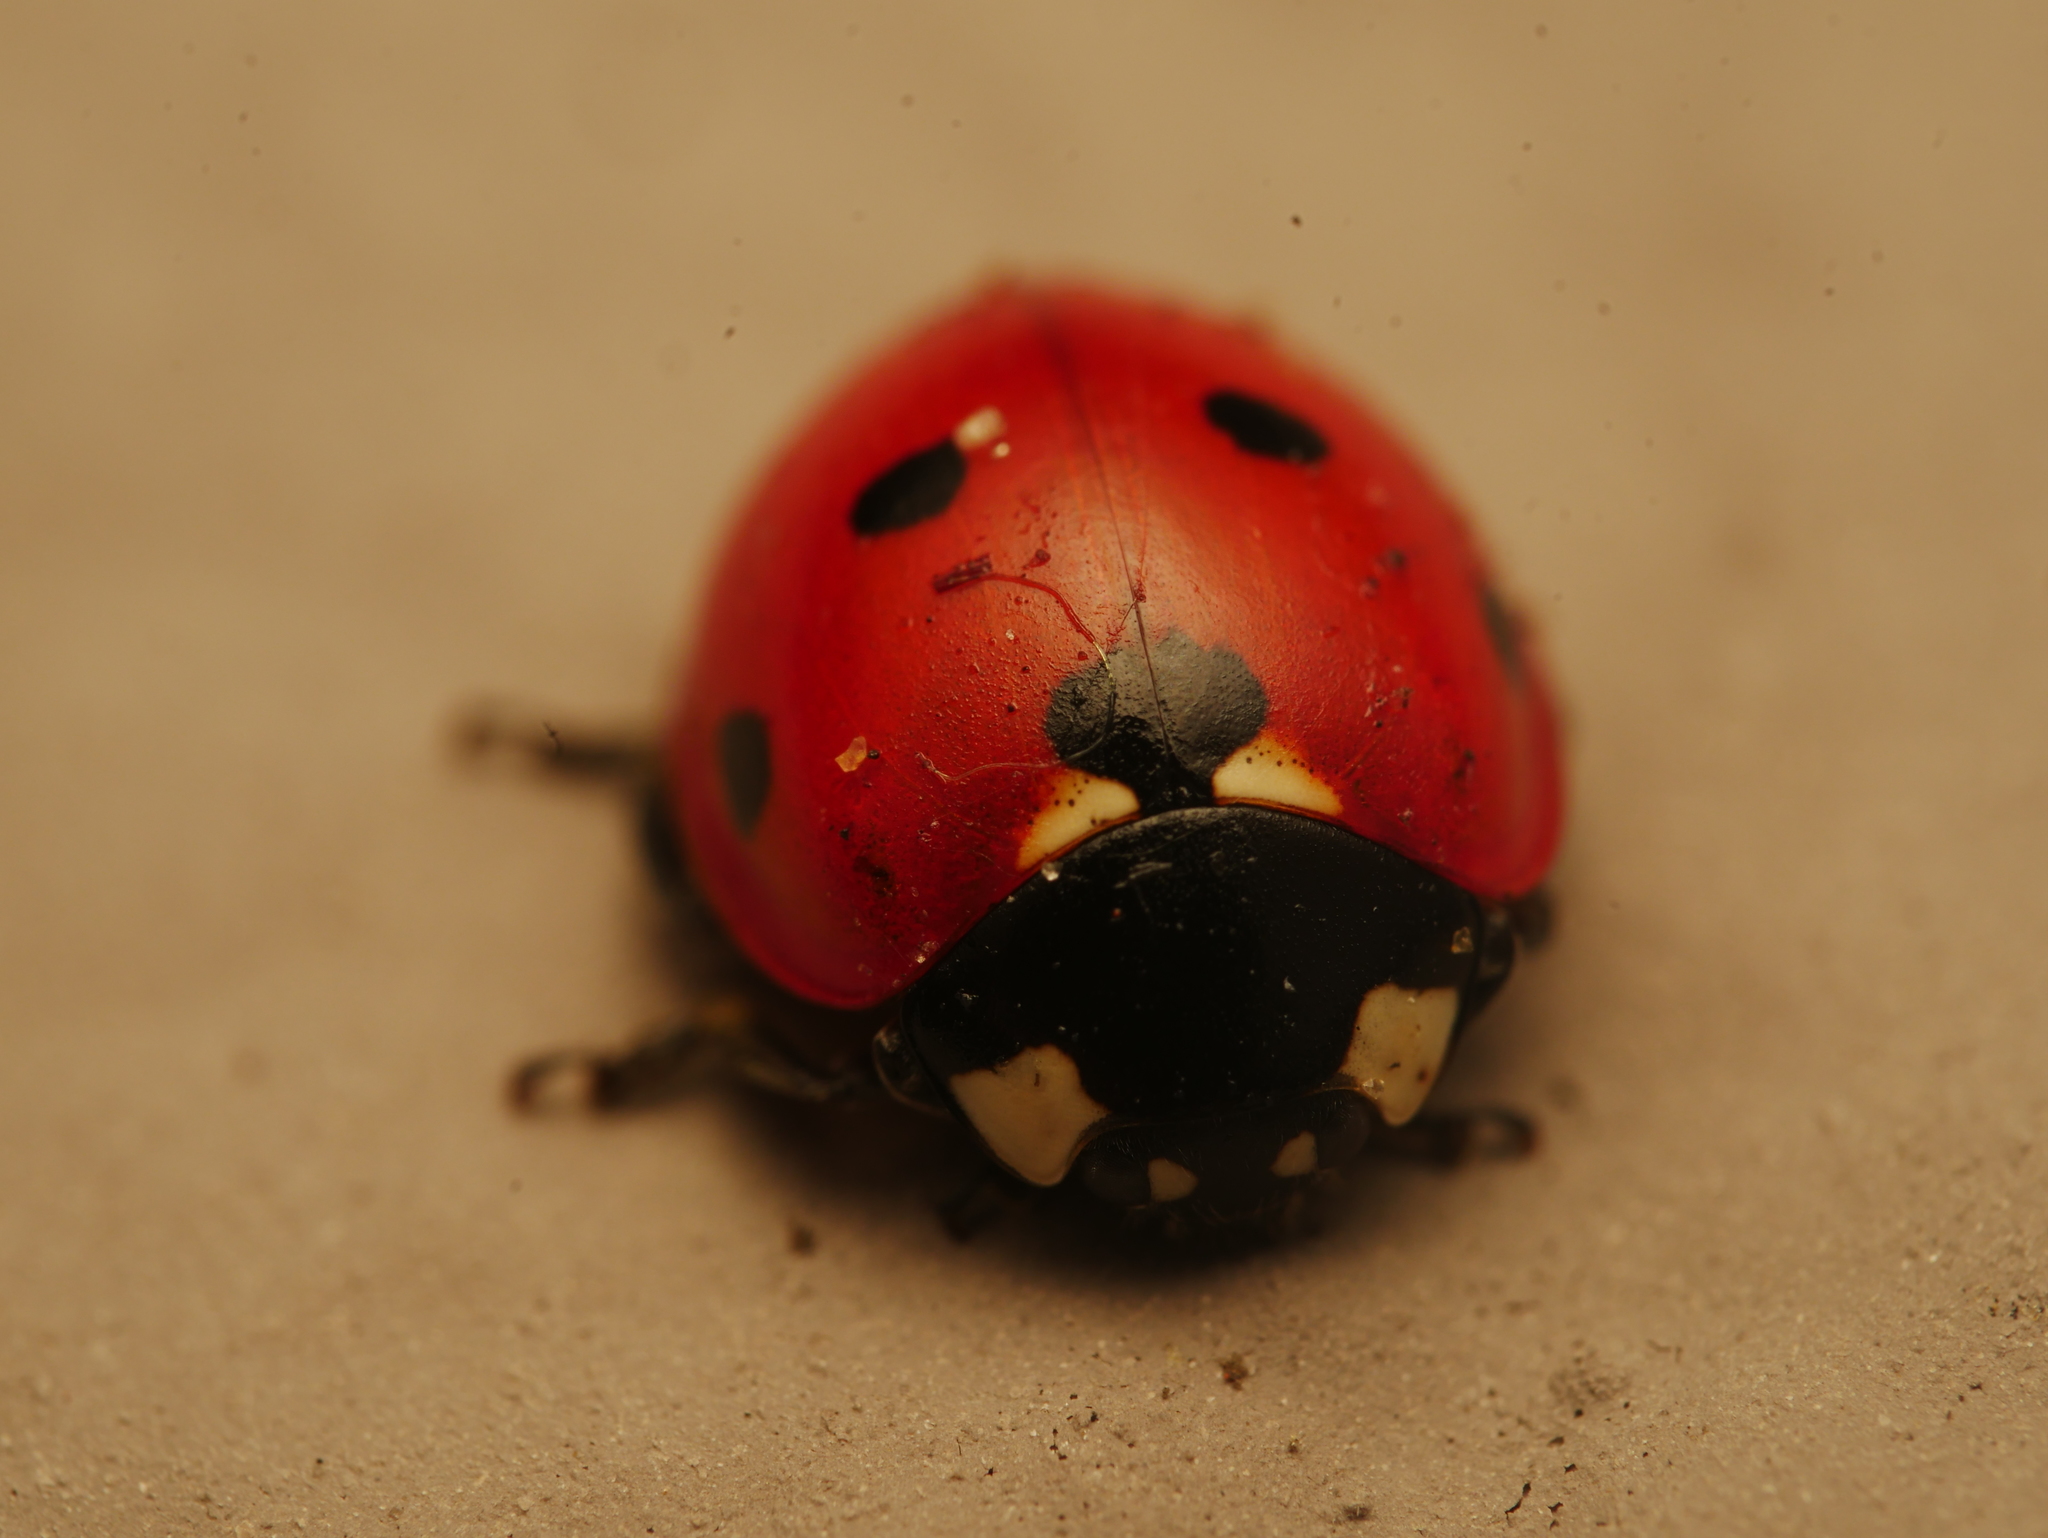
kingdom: Animalia
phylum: Arthropoda
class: Insecta
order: Coleoptera
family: Coccinellidae
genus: Coccinella
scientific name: Coccinella septempunctata
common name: Sevenspotted lady beetle
